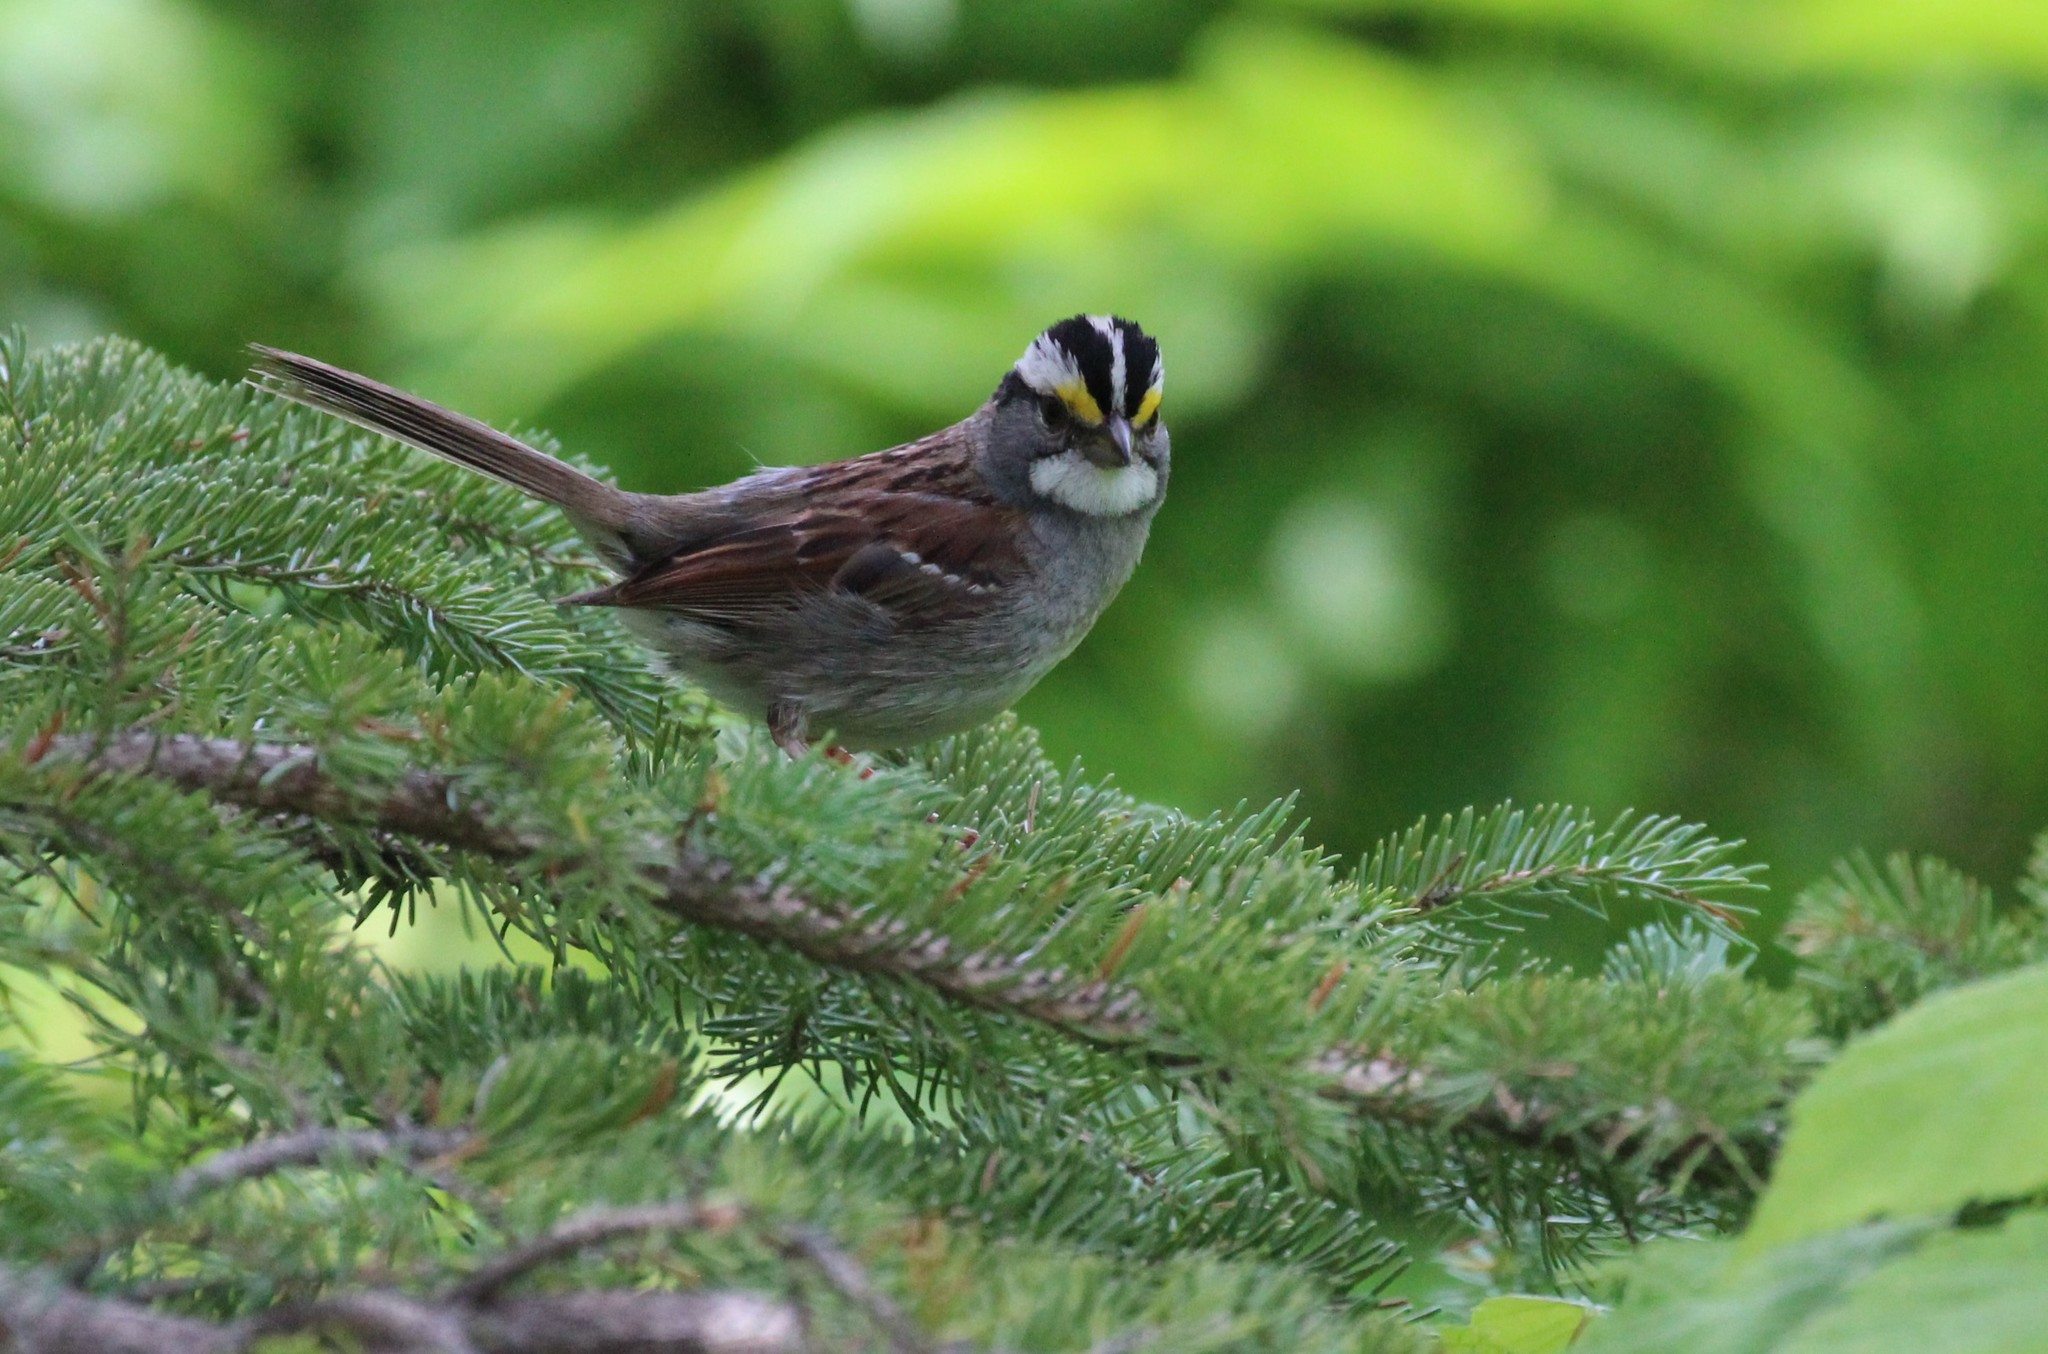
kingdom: Animalia
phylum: Chordata
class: Aves
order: Passeriformes
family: Passerellidae
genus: Zonotrichia
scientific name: Zonotrichia albicollis
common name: White-throated sparrow
